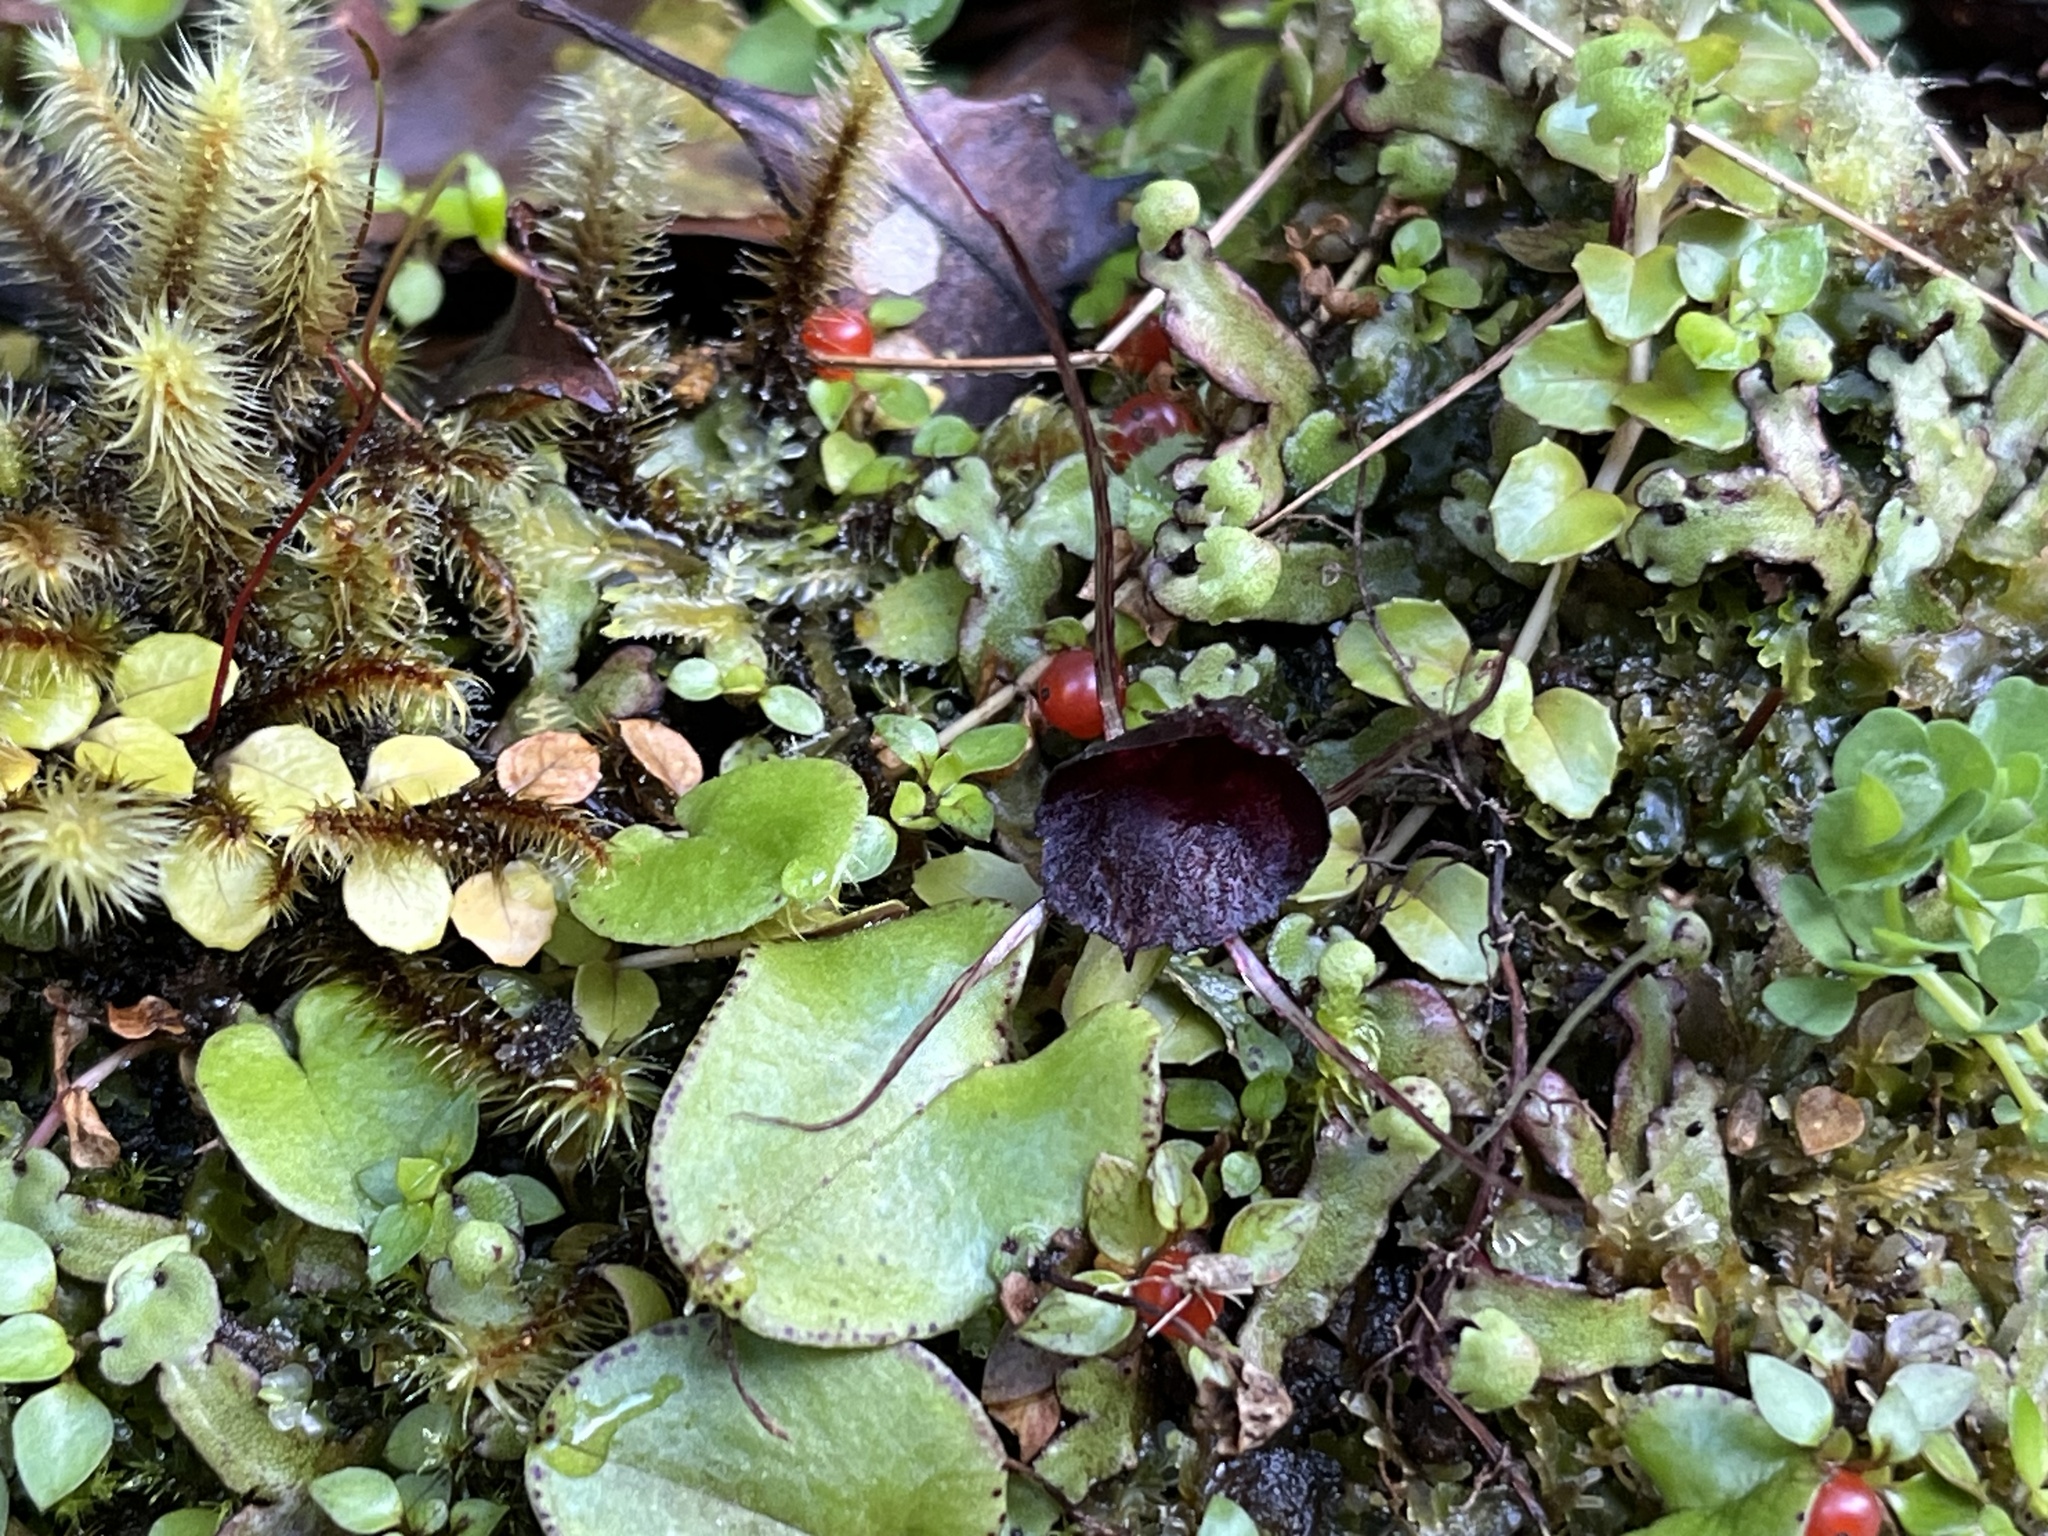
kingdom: Plantae
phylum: Tracheophyta
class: Liliopsida
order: Asparagales
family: Orchidaceae
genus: Corybas
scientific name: Corybas iridescens
